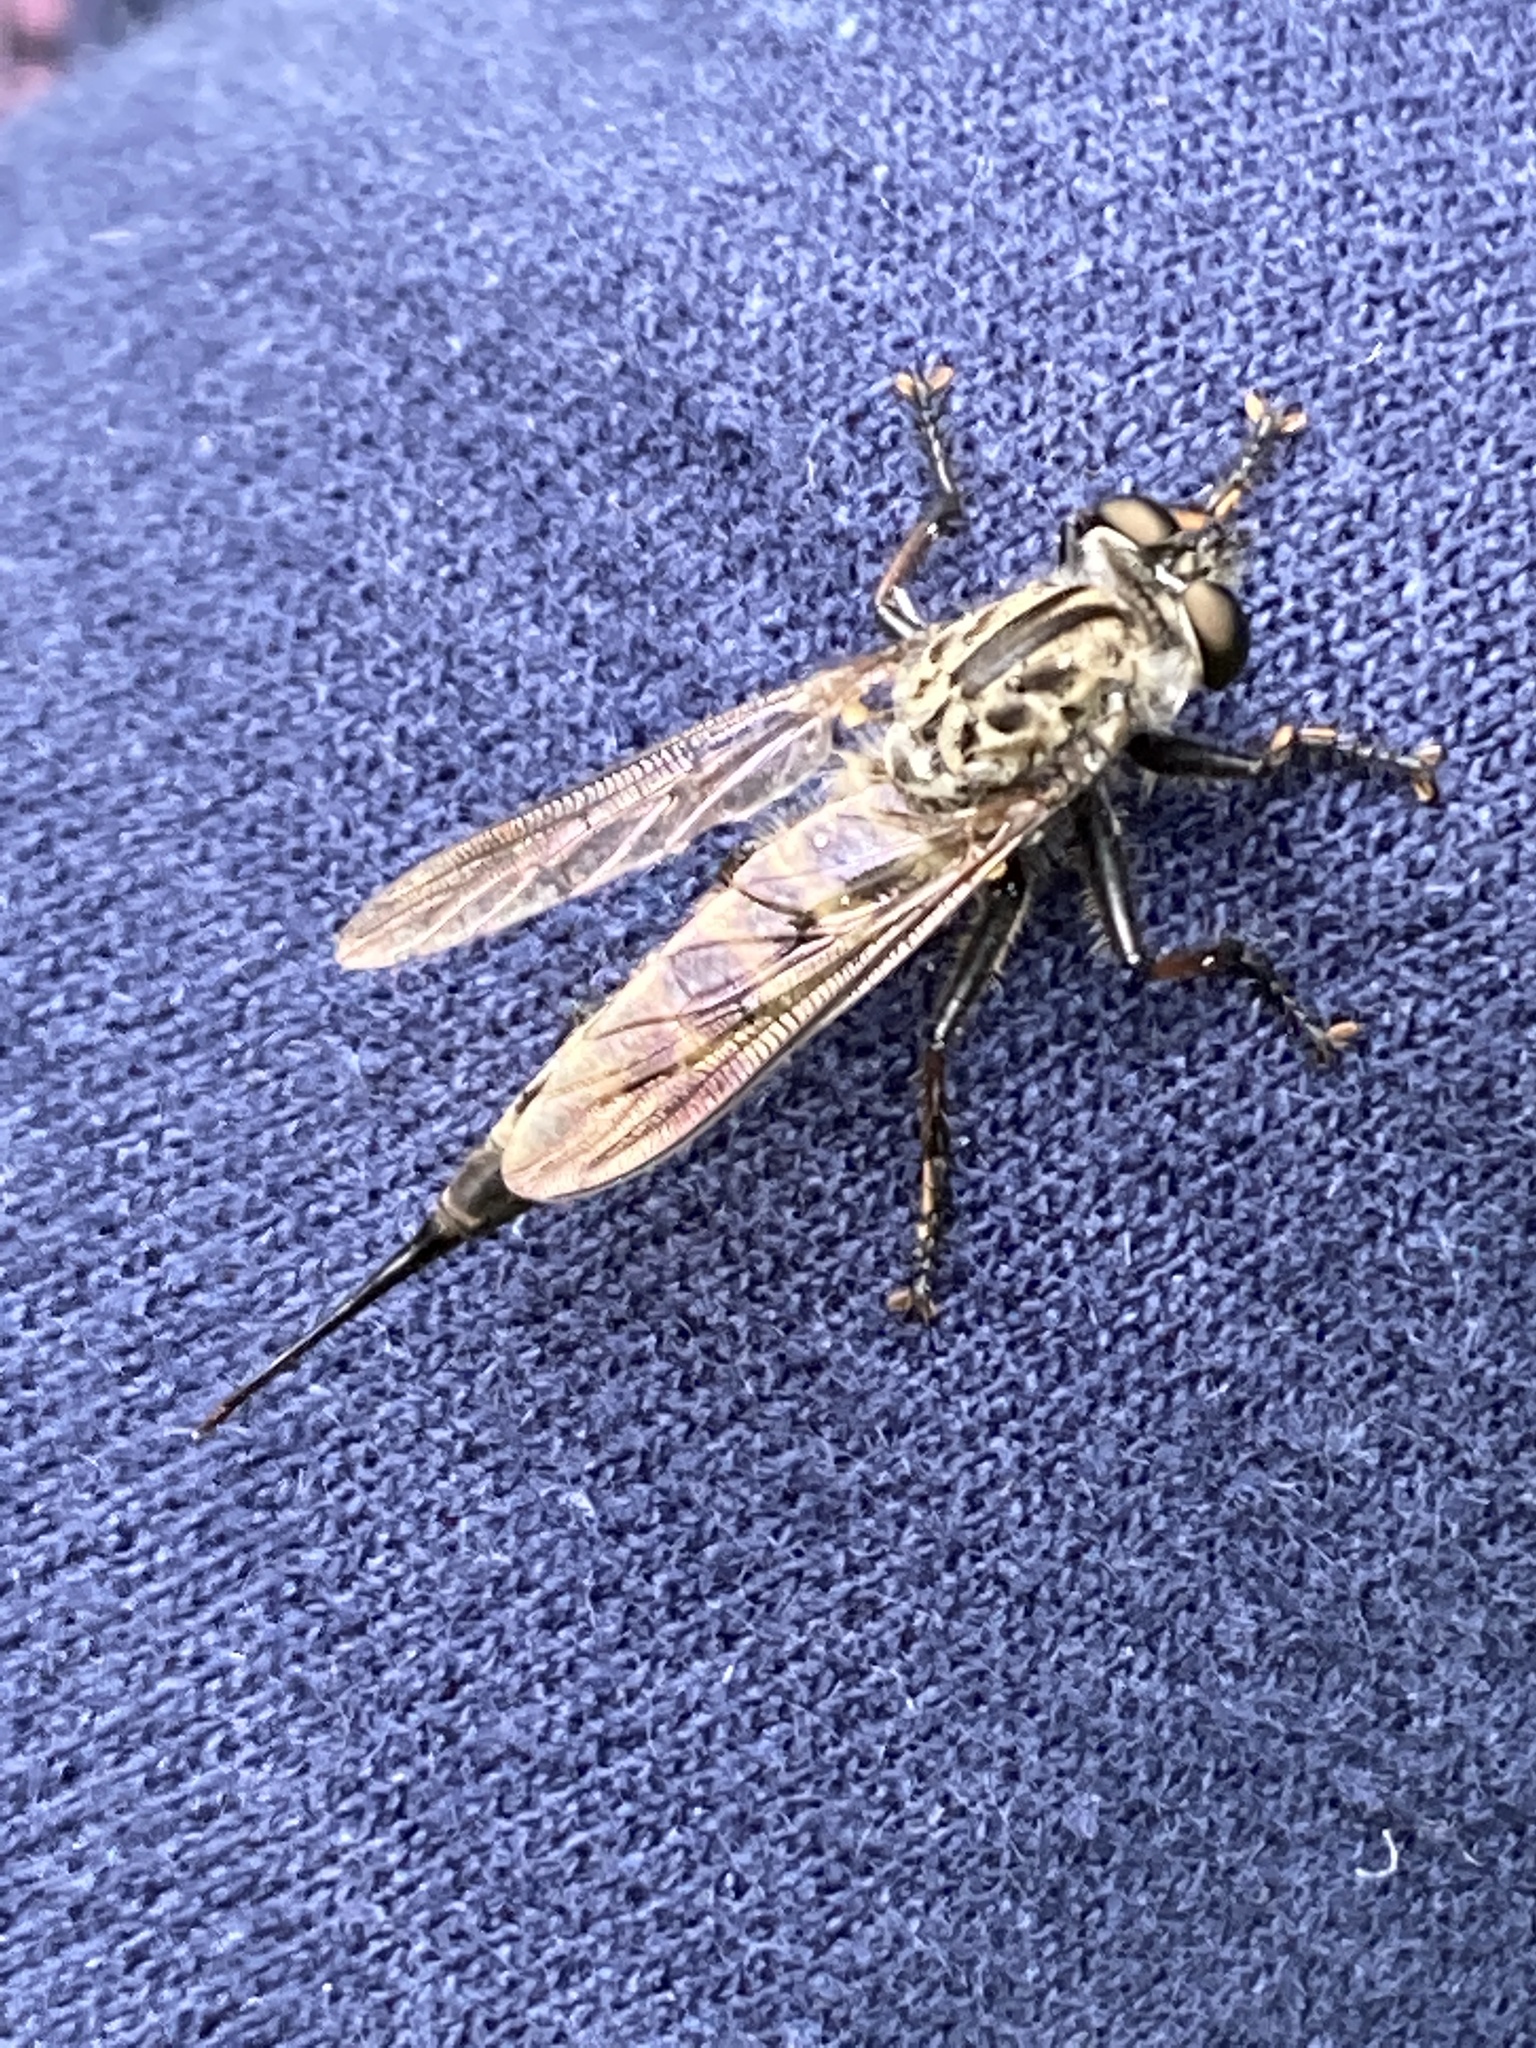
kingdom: Animalia
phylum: Arthropoda
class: Insecta
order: Diptera
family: Asilidae
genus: Efferia
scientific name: Efferia aestuans
